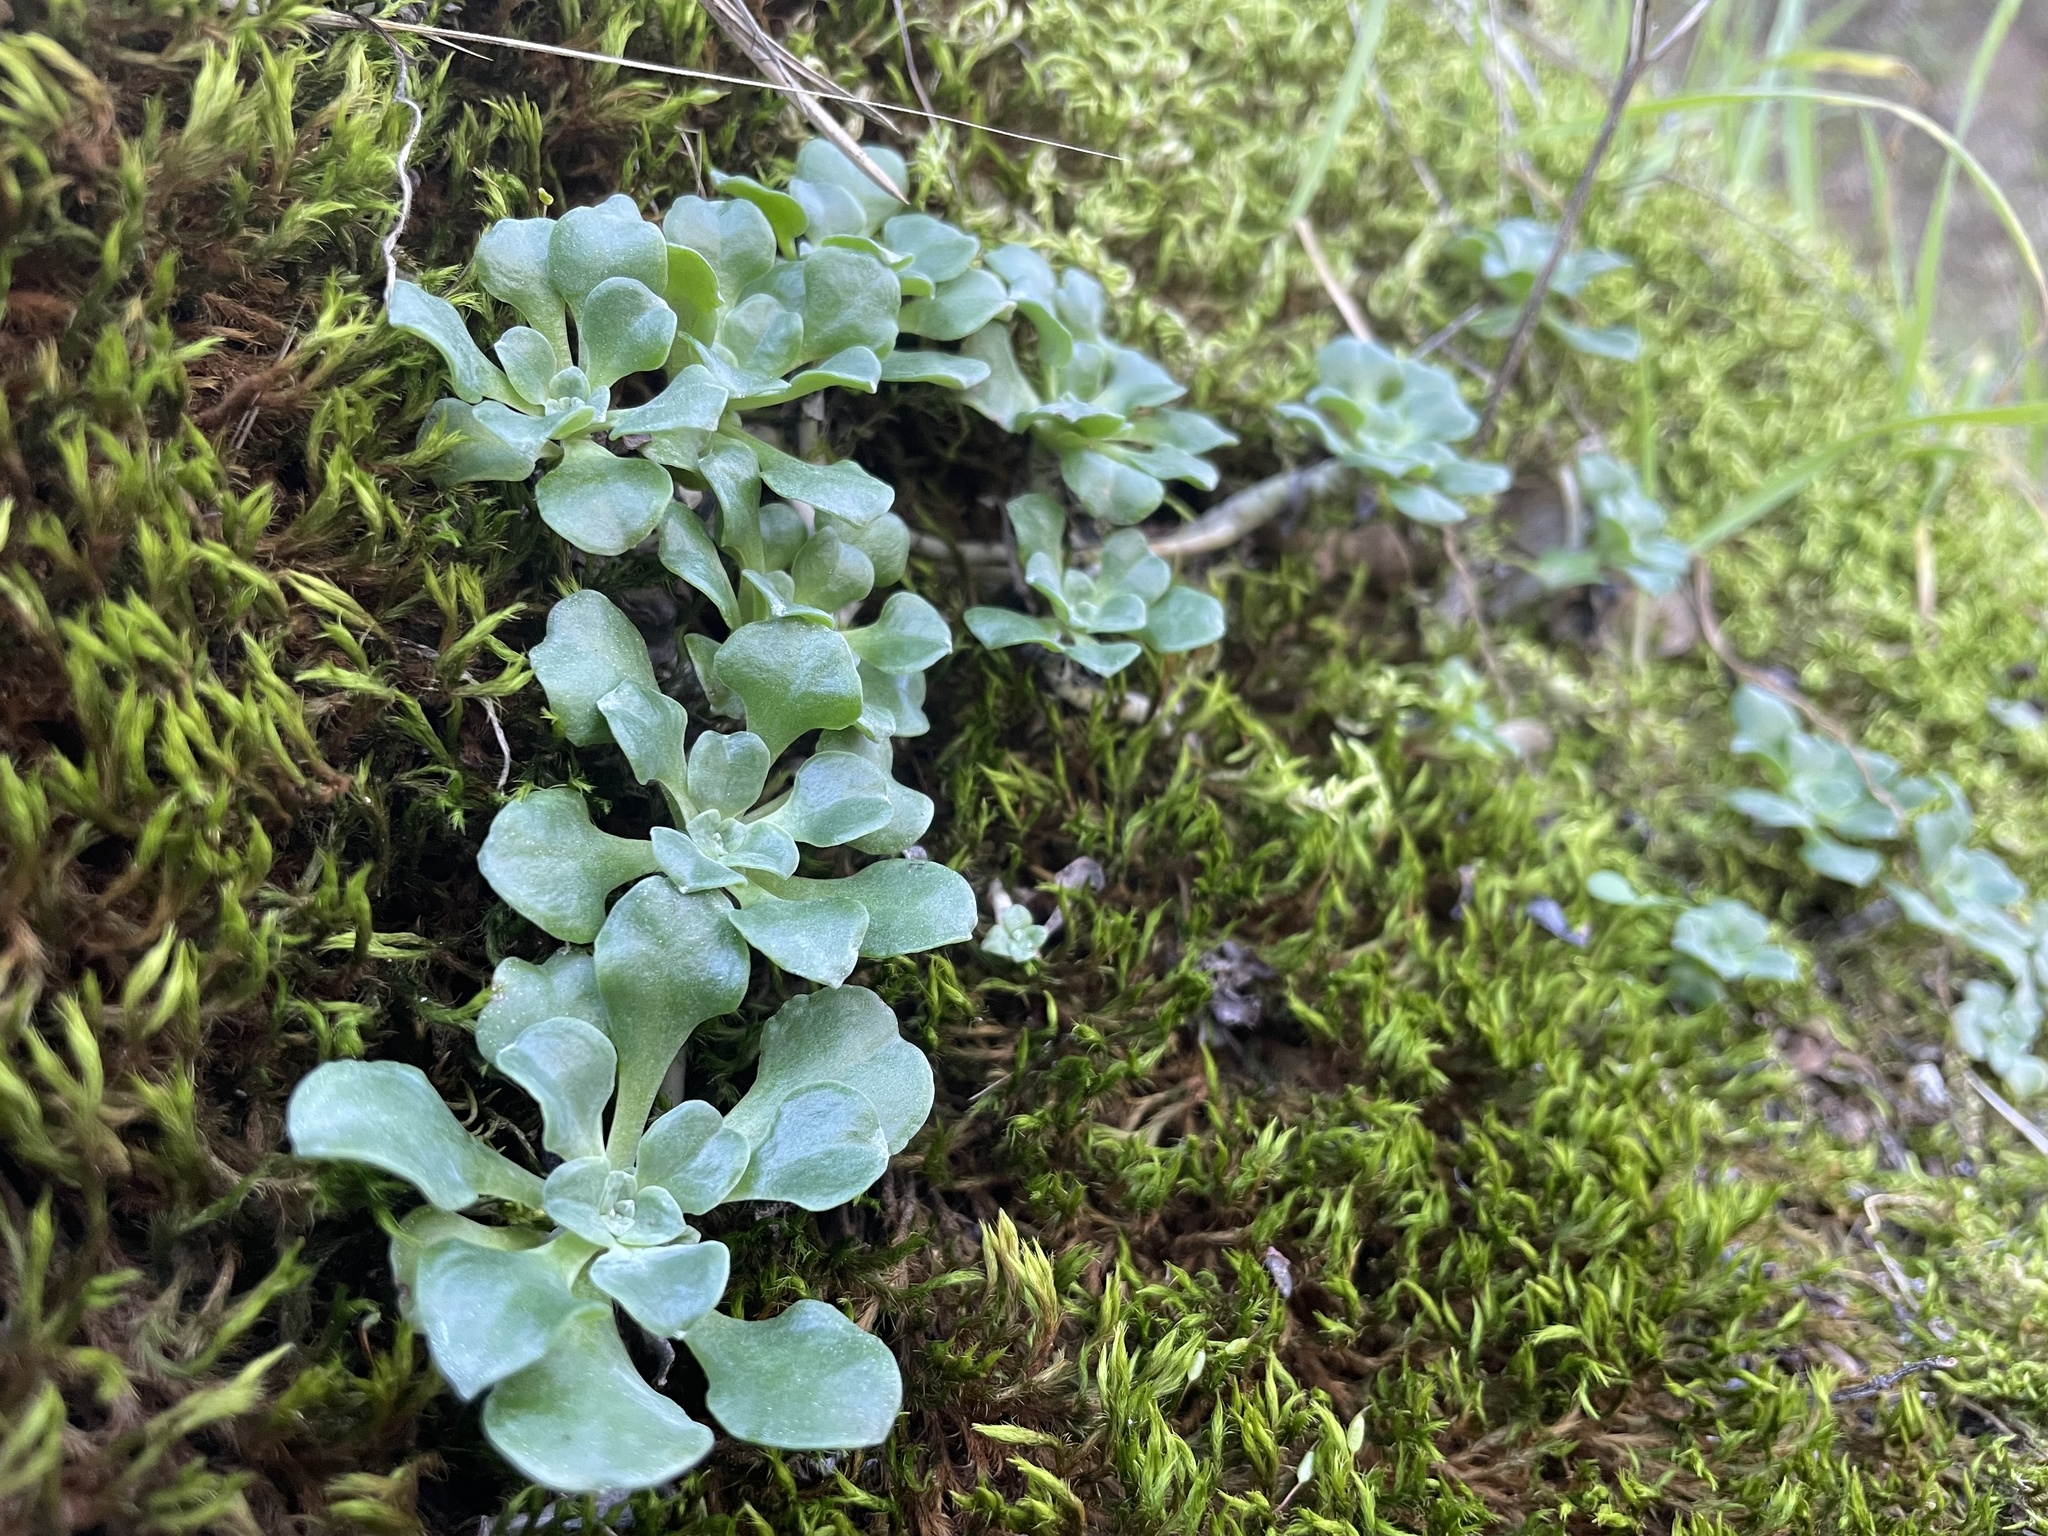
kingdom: Plantae
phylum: Tracheophyta
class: Magnoliopsida
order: Saxifragales
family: Crassulaceae
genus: Sedum
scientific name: Sedum spathulifolium
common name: Colorado stonecrop
